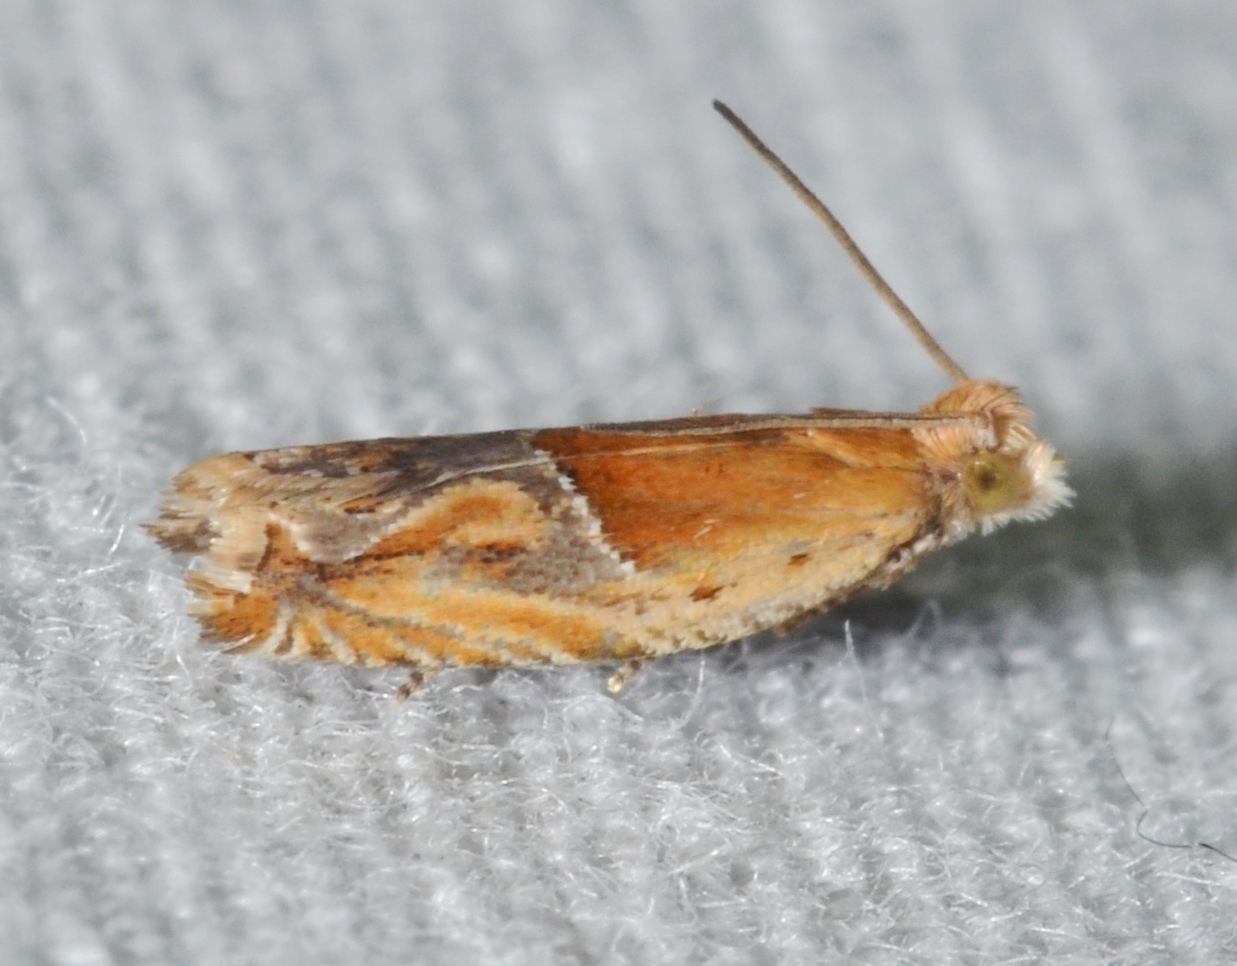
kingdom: Animalia
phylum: Arthropoda
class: Insecta
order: Lepidoptera
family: Tortricidae
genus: Ancylis
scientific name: Ancylis comptana
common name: Little roller
